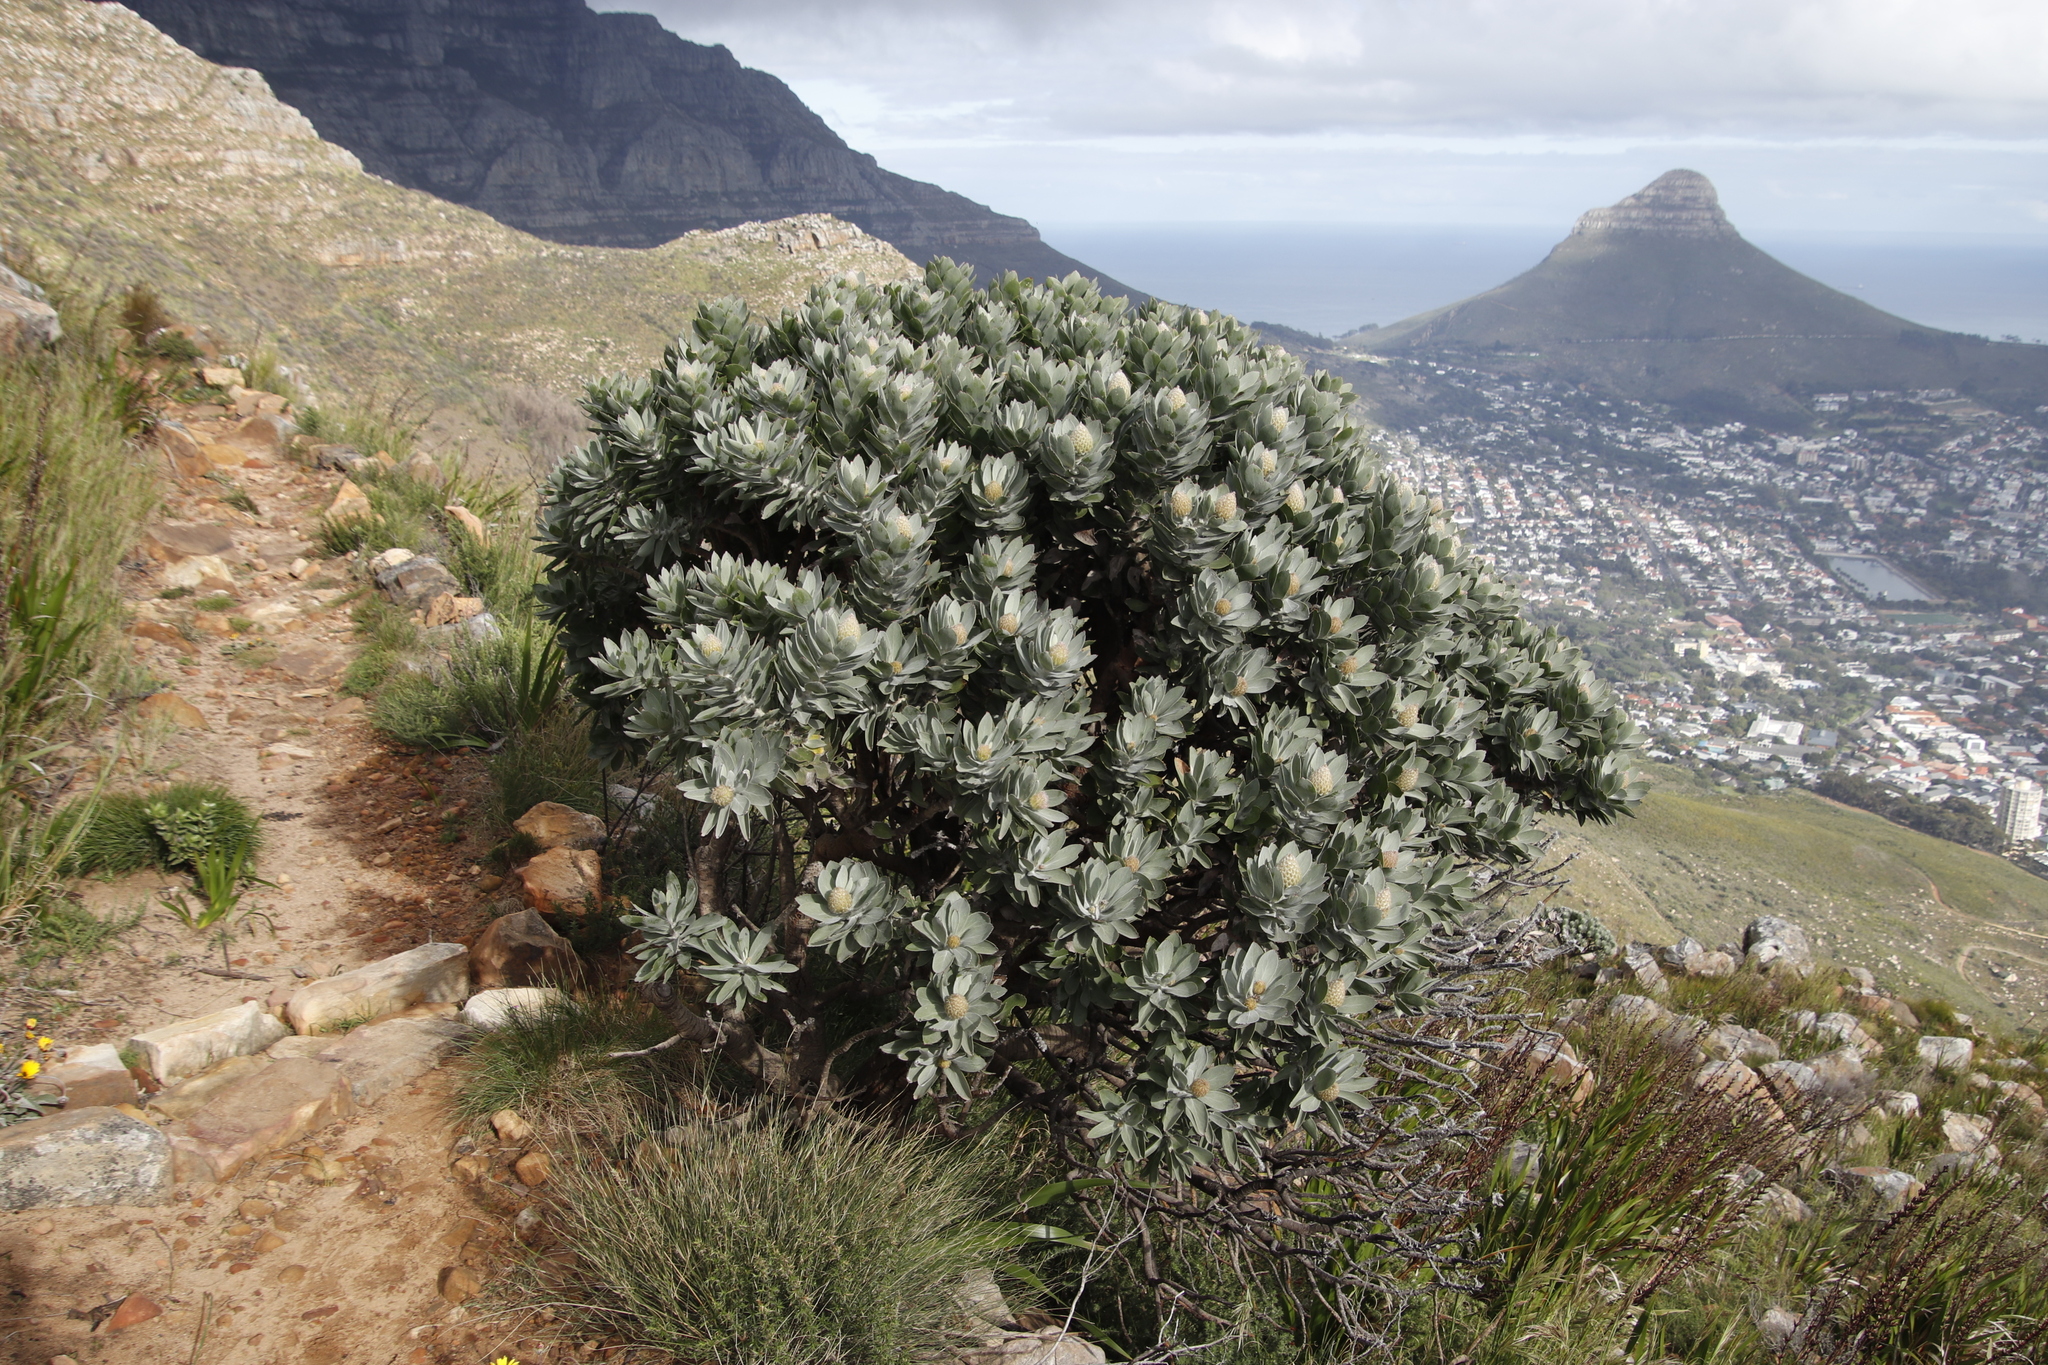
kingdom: Plantae
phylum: Tracheophyta
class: Magnoliopsida
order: Proteales
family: Proteaceae
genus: Leucospermum
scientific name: Leucospermum conocarpodendron
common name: Tree pincushion
